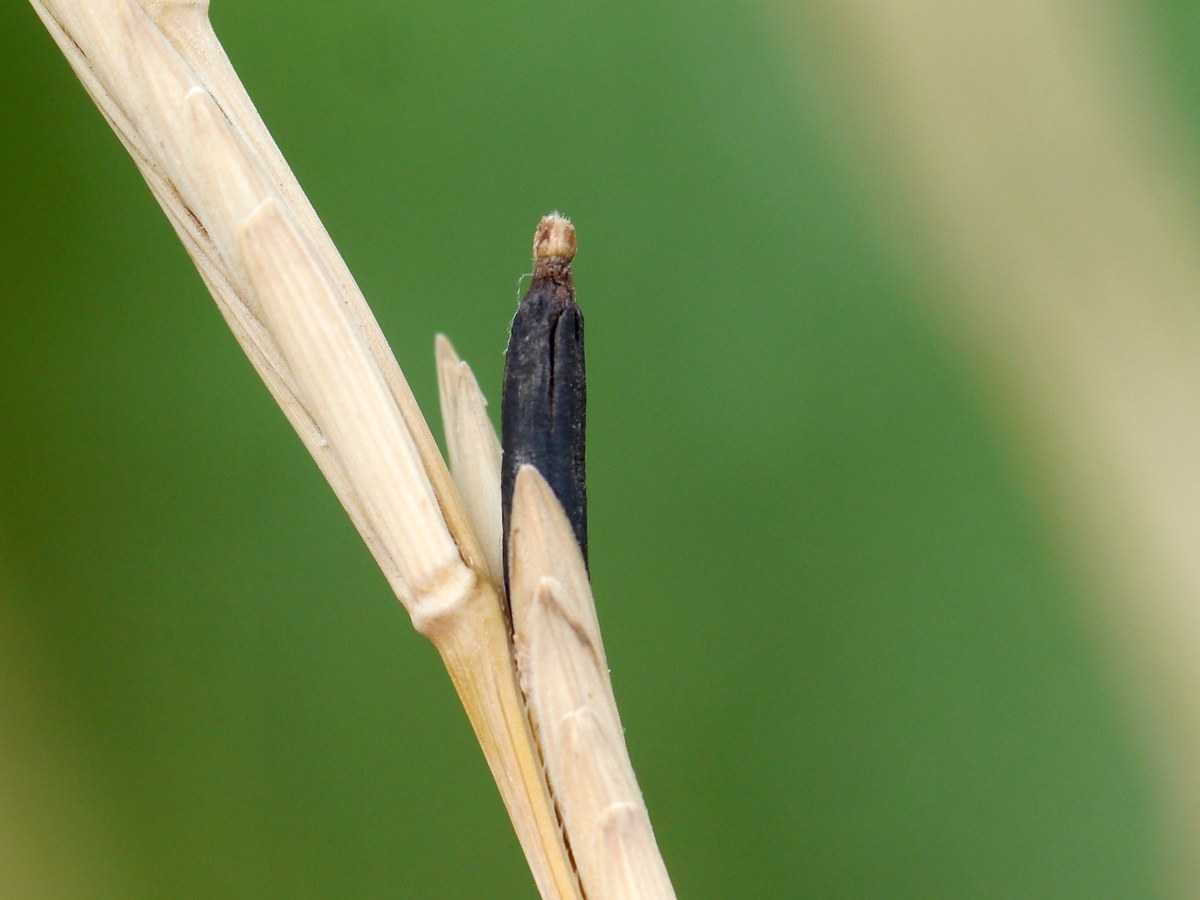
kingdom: Fungi
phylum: Ascomycota
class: Sordariomycetes
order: Hypocreales
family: Clavicipitaceae
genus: Claviceps
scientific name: Claviceps purpurea
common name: Rye ergot
